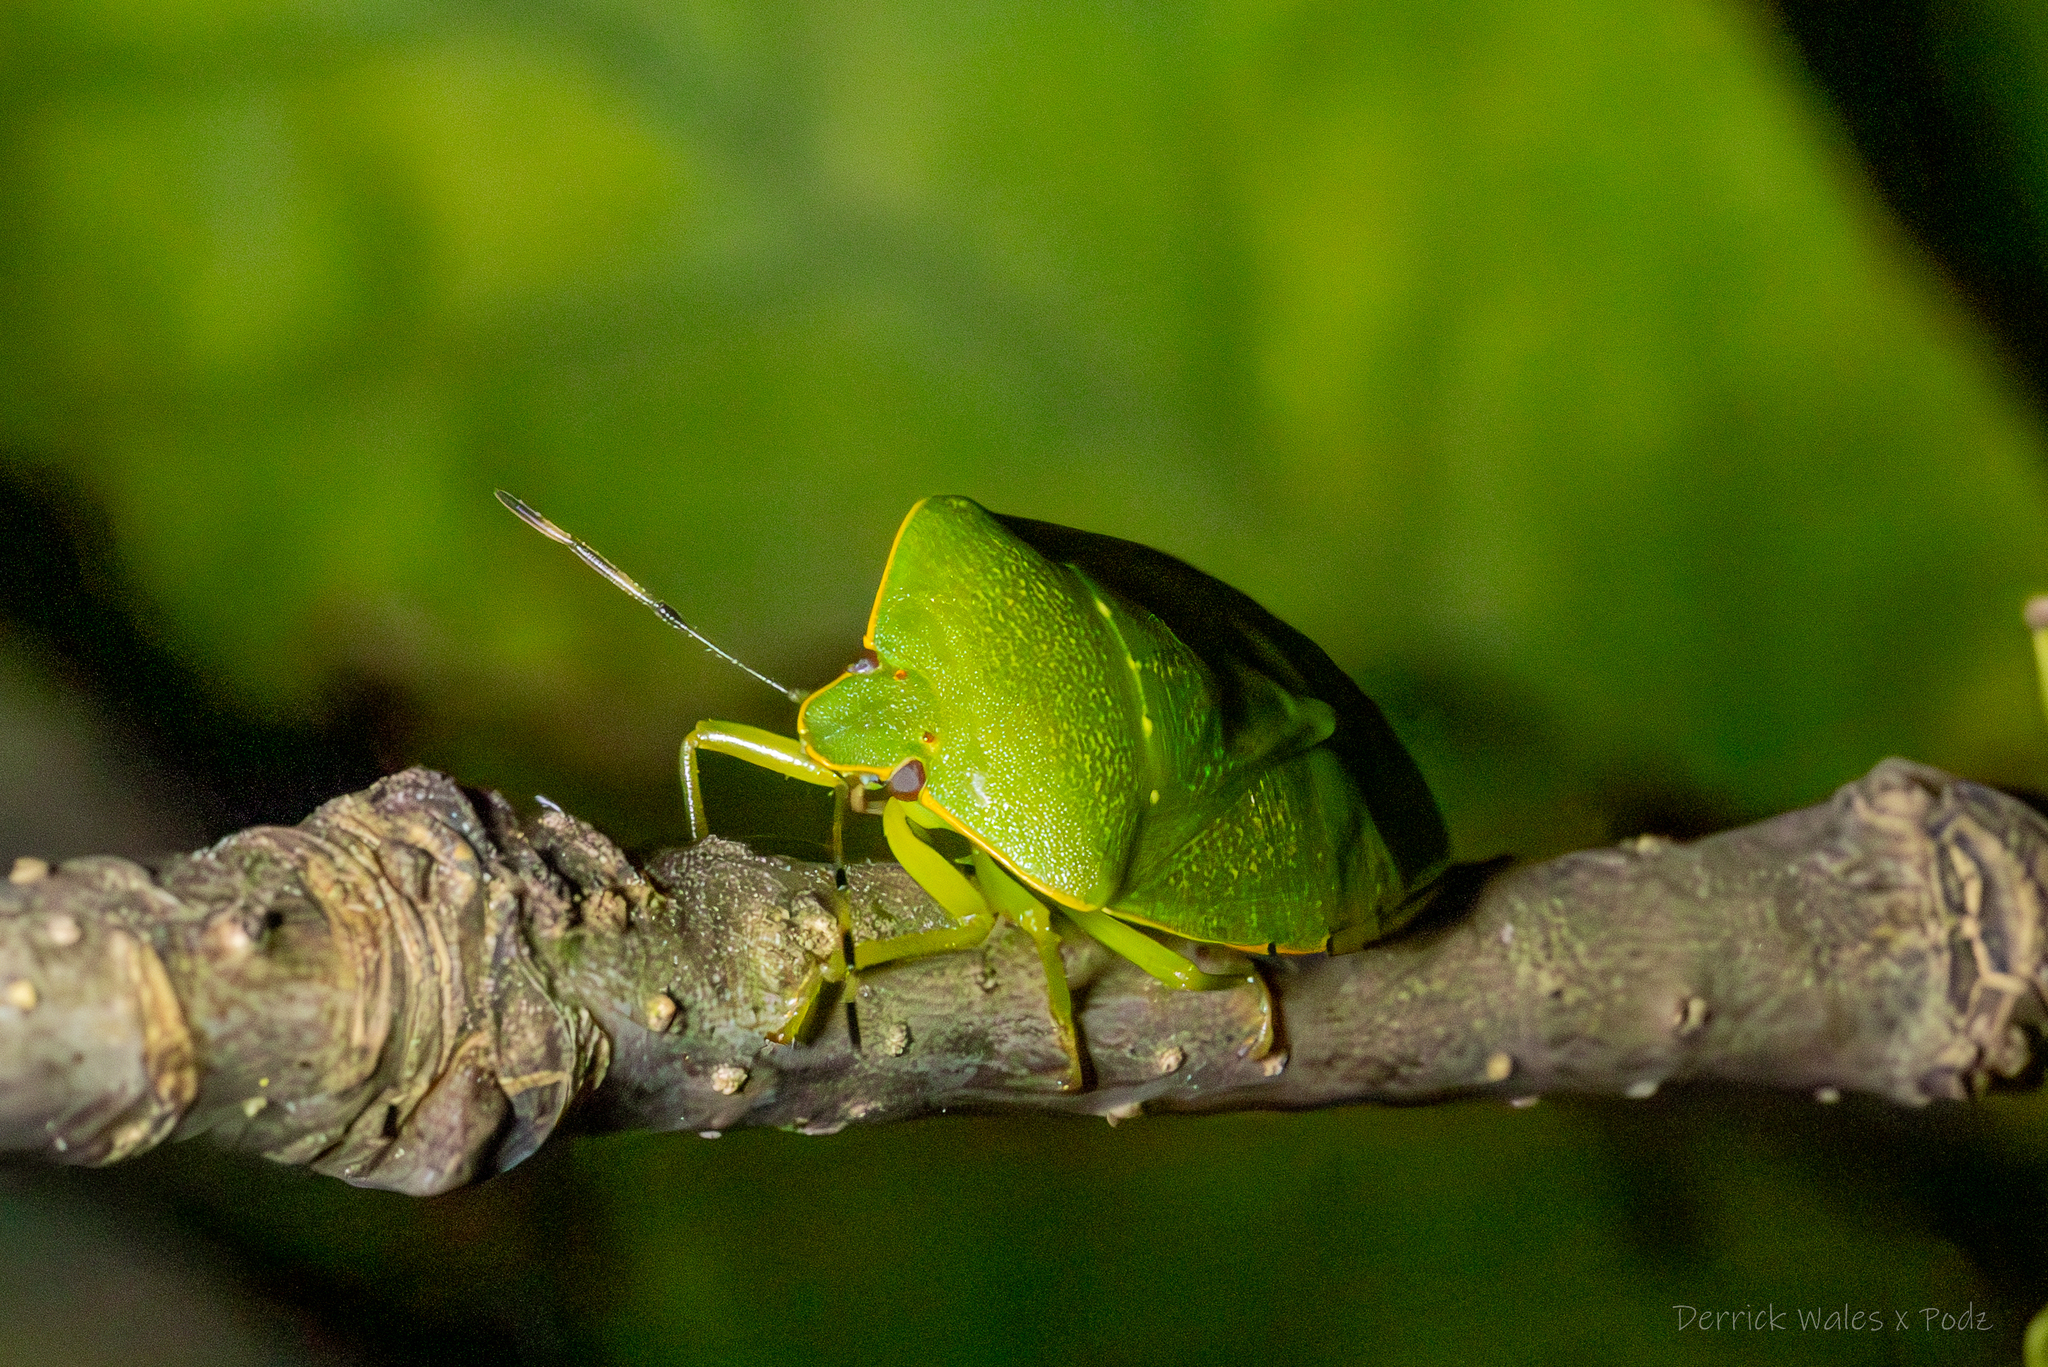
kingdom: Animalia
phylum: Arthropoda
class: Insecta
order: Hemiptera
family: Pentatomidae
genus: Chinavia
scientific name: Chinavia hilaris
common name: Green stink bug
